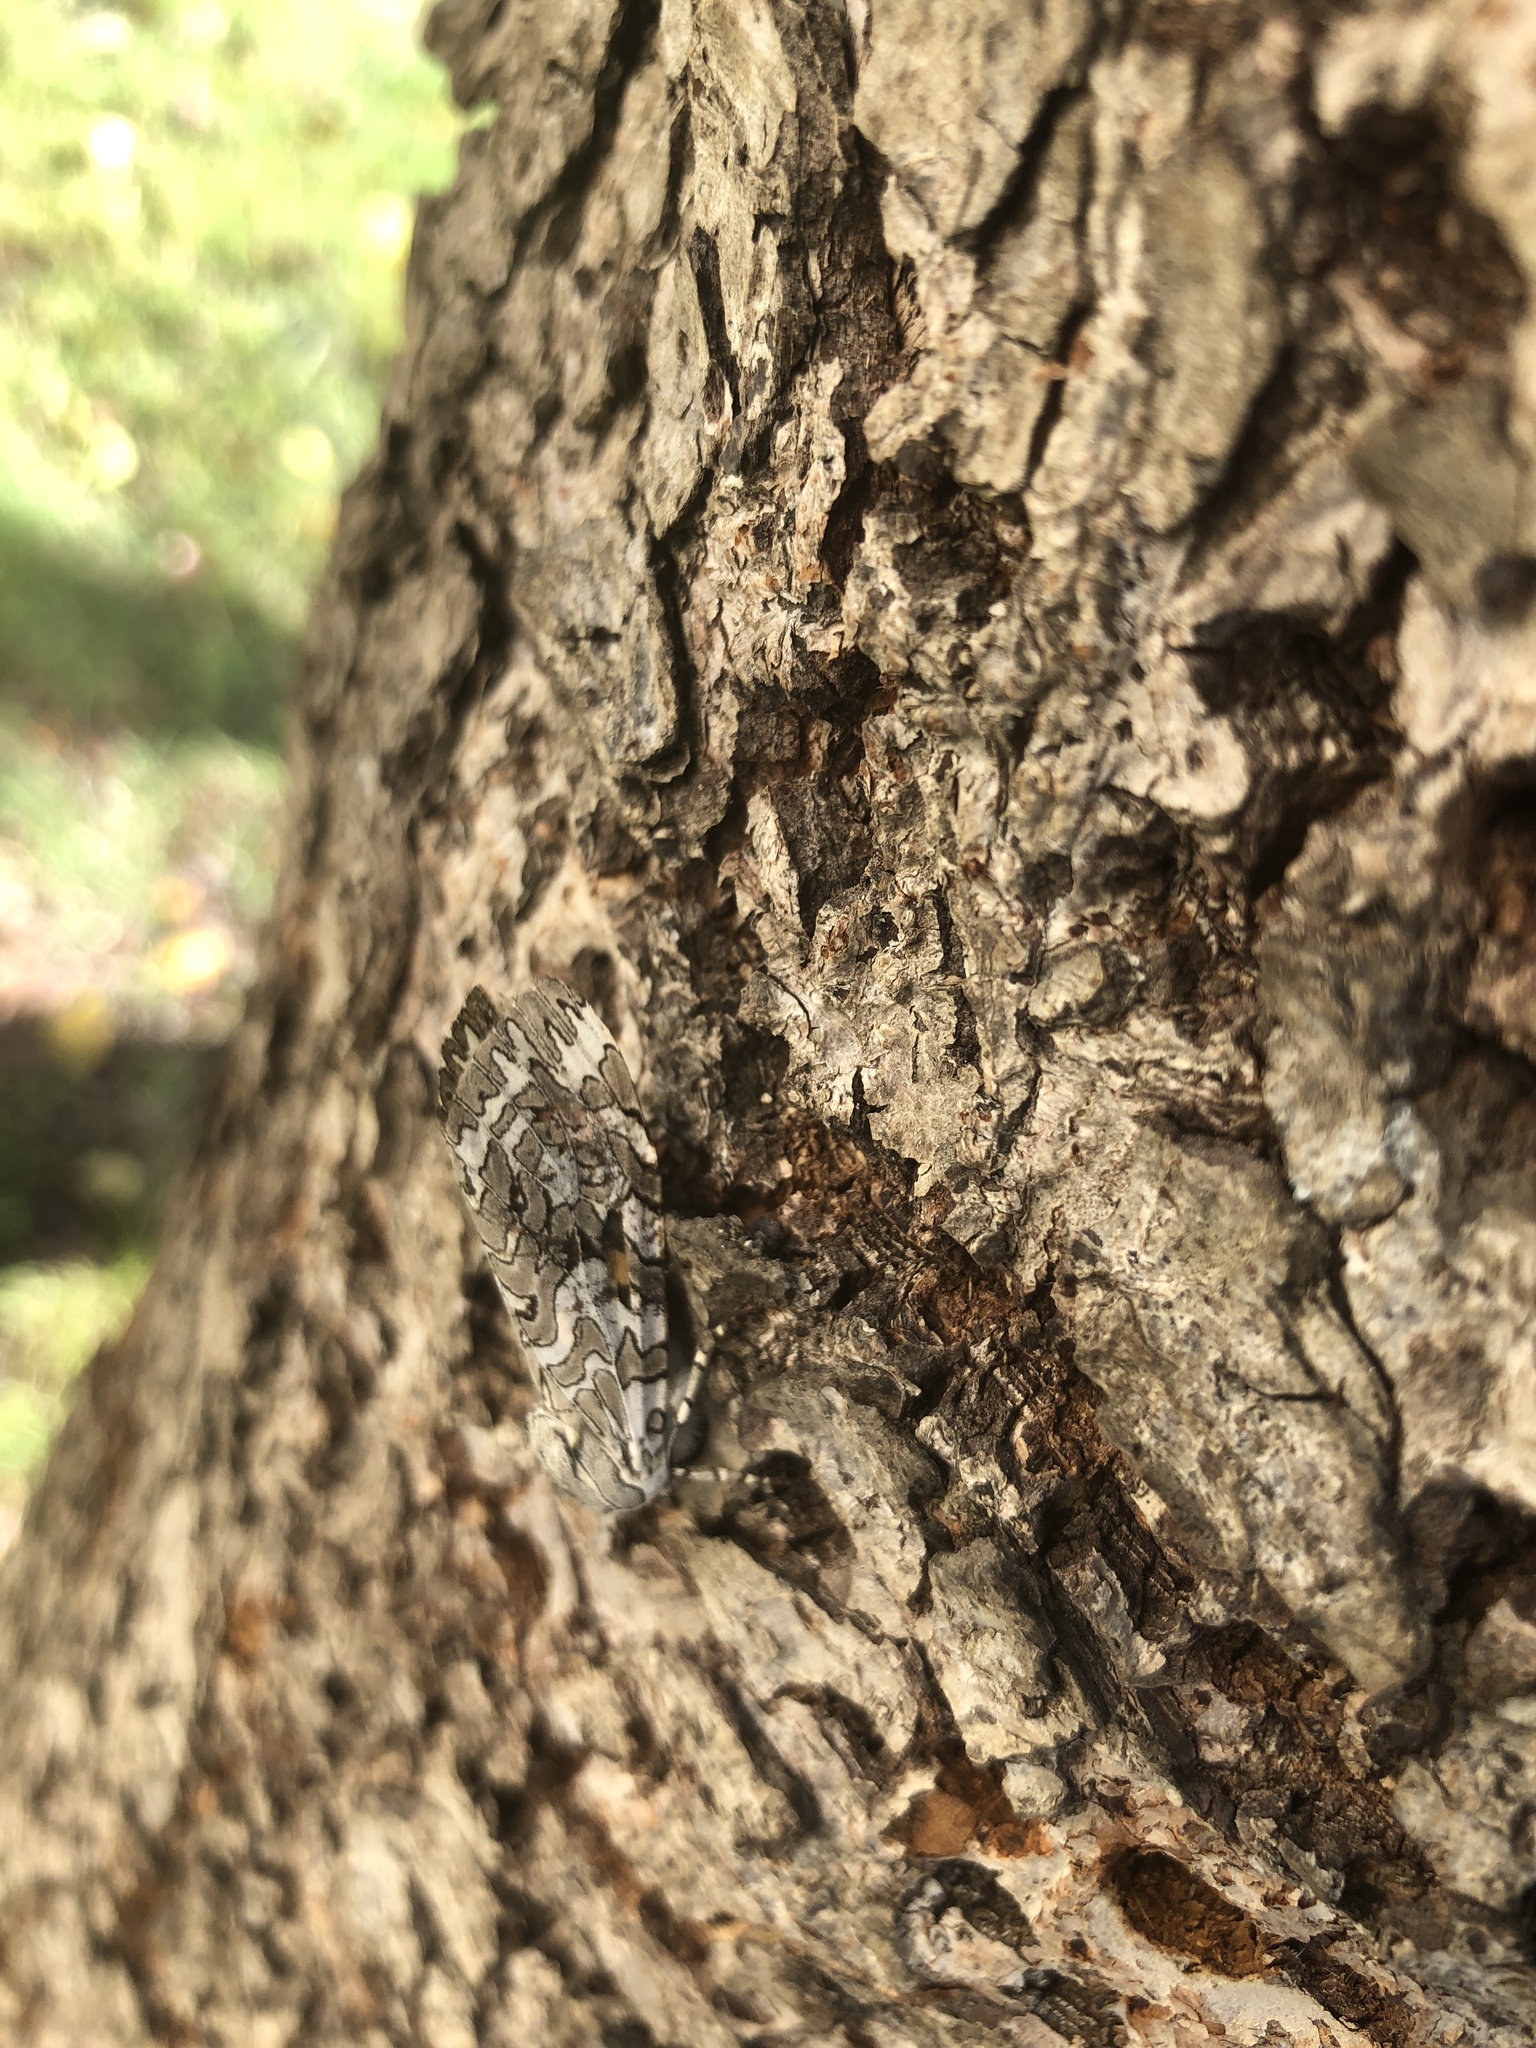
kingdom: Animalia
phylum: Arthropoda
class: Insecta
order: Lepidoptera
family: Erebidae
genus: Arachnis
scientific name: Arachnis picta
